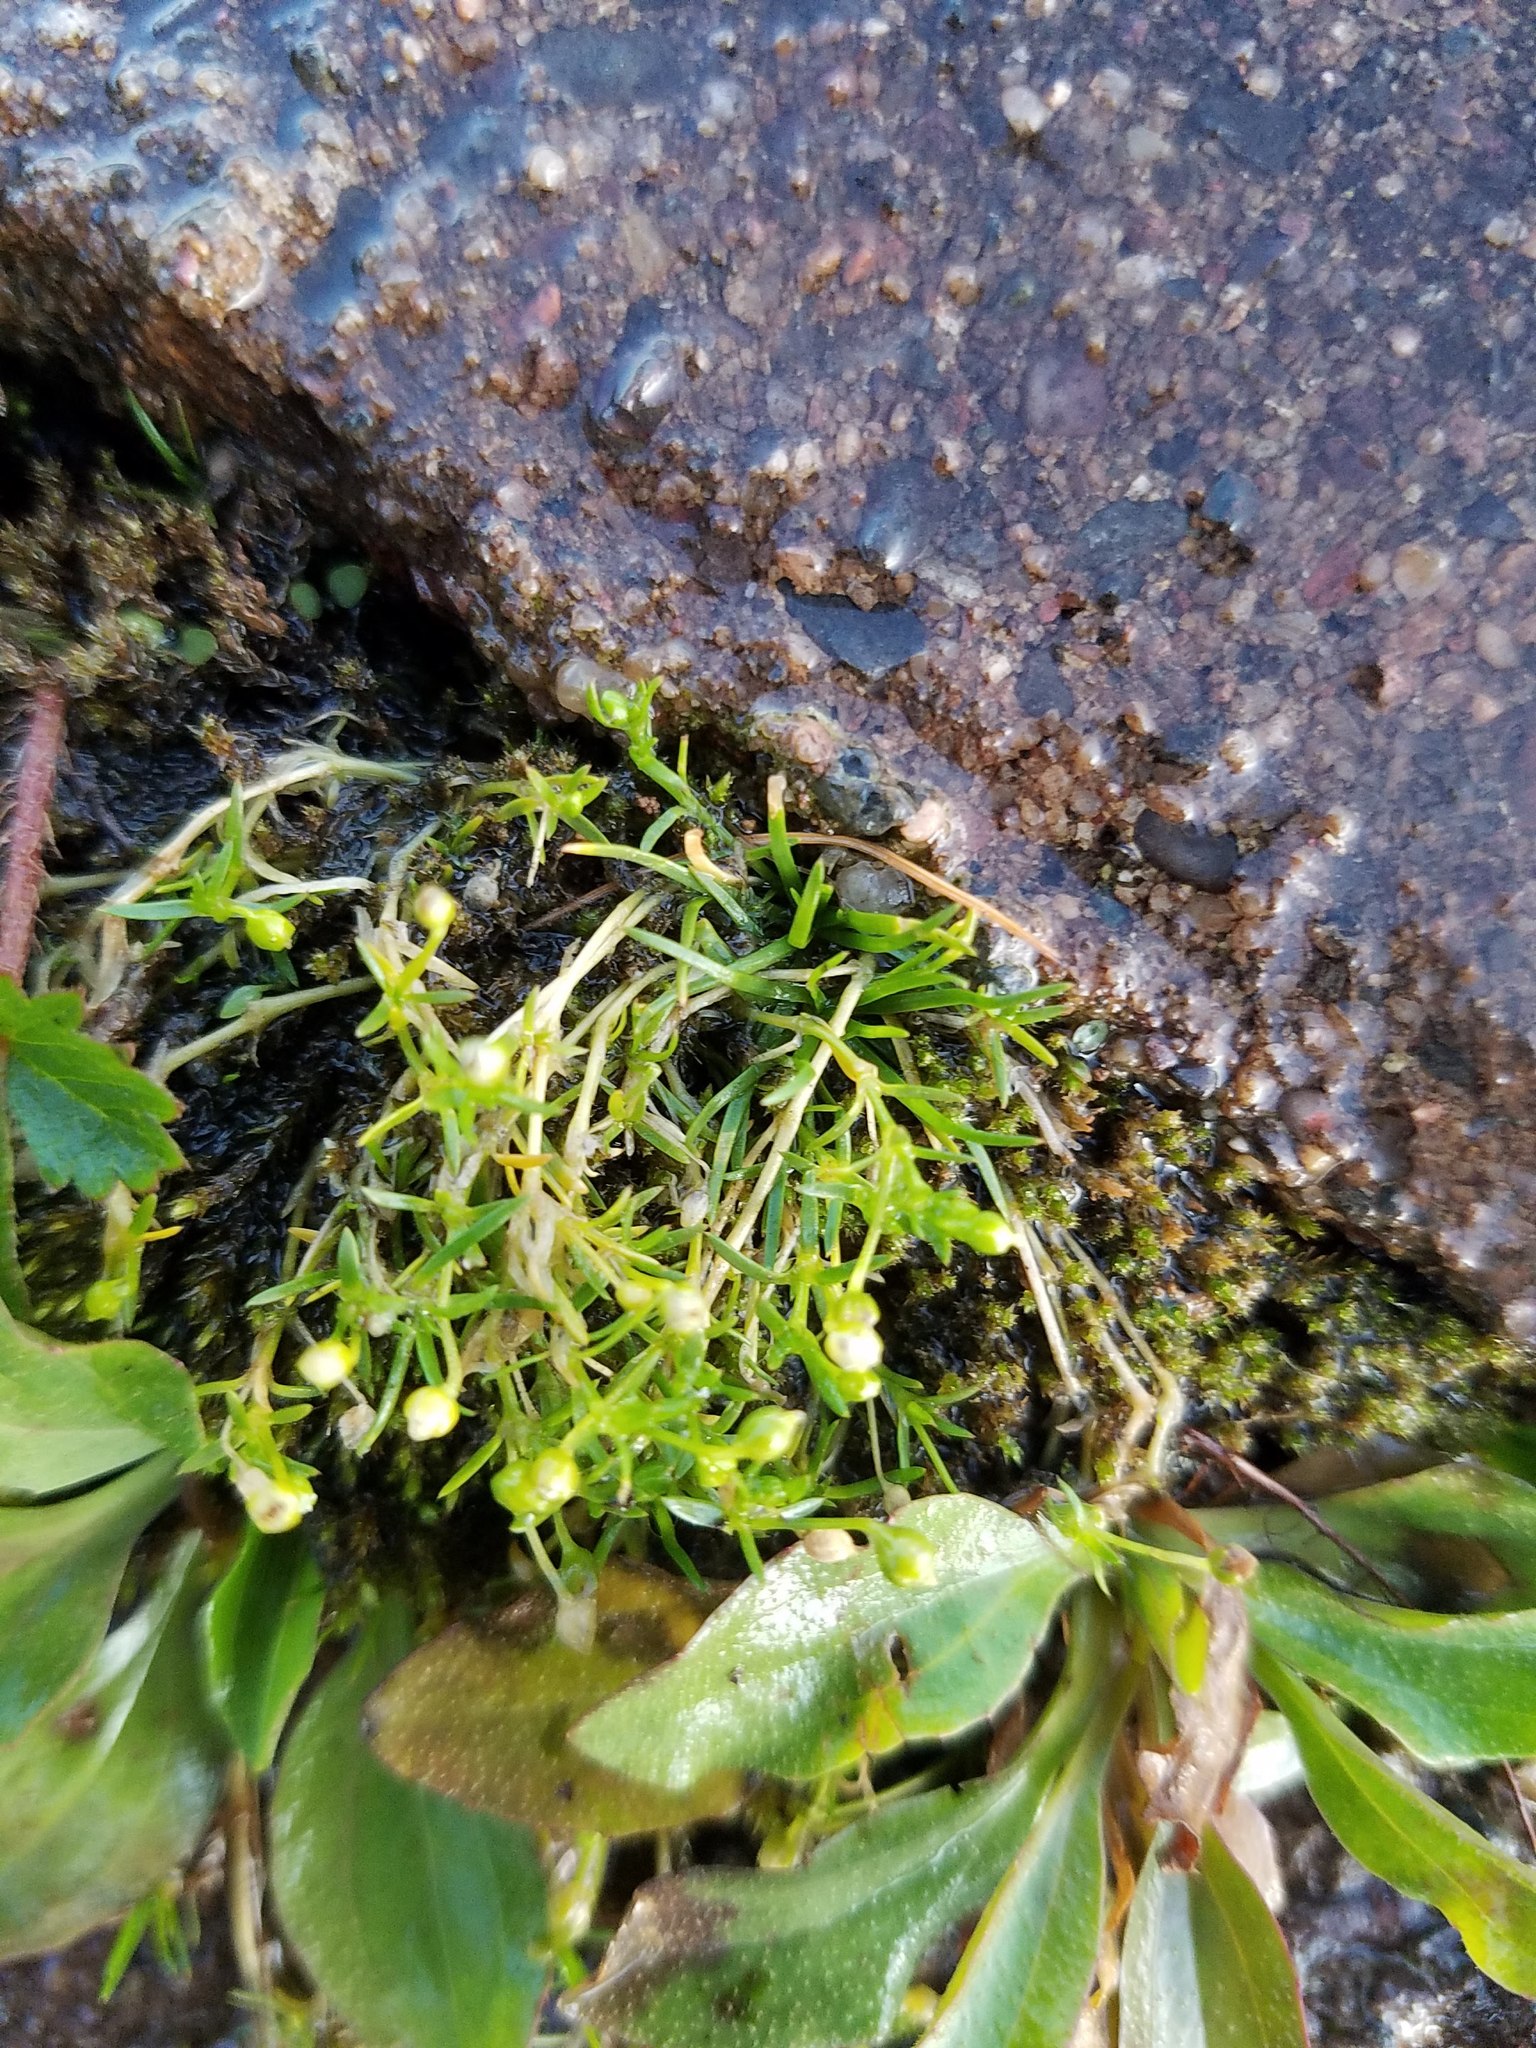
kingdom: Plantae
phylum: Tracheophyta
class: Magnoliopsida
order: Caryophyllales
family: Caryophyllaceae
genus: Sagina
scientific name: Sagina procumbens
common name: Procumbent pearlwort
